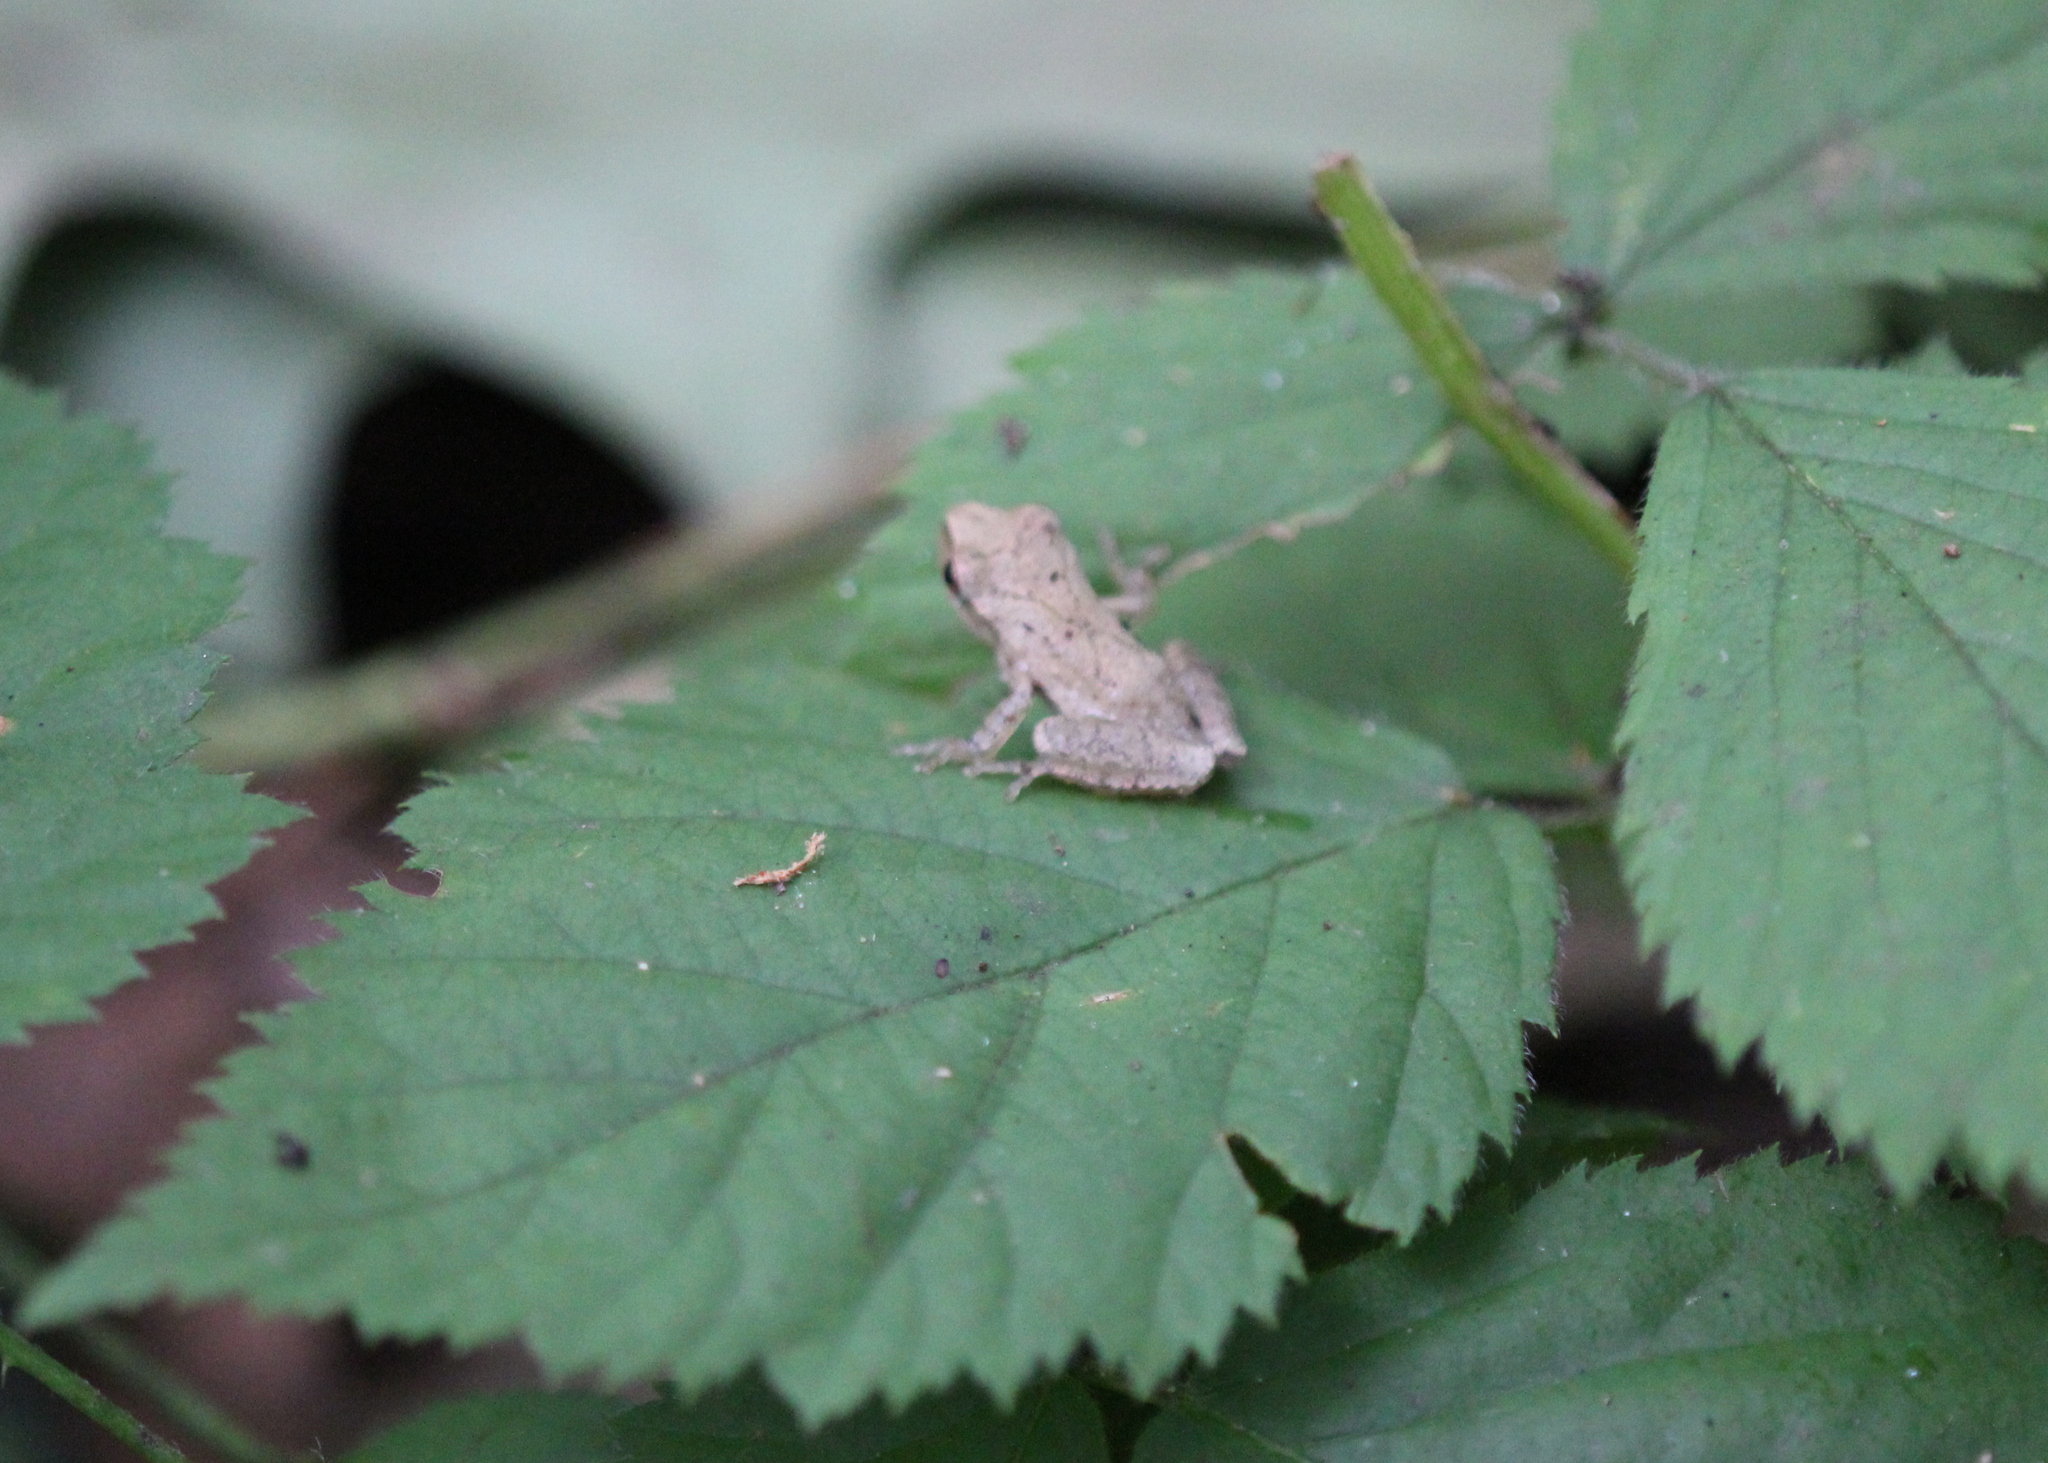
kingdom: Animalia
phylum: Chordata
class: Amphibia
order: Anura
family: Hylidae
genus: Pseudacris
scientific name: Pseudacris crucifer
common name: Spring peeper
